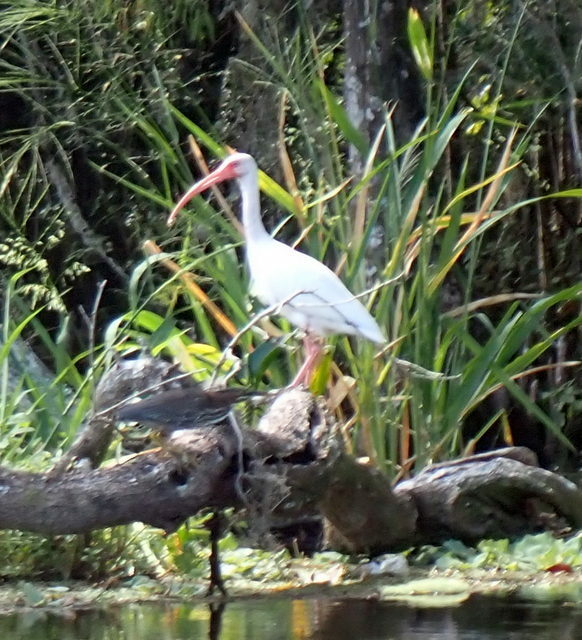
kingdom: Animalia
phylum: Chordata
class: Aves
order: Pelecaniformes
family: Threskiornithidae
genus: Eudocimus
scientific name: Eudocimus albus
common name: White ibis
